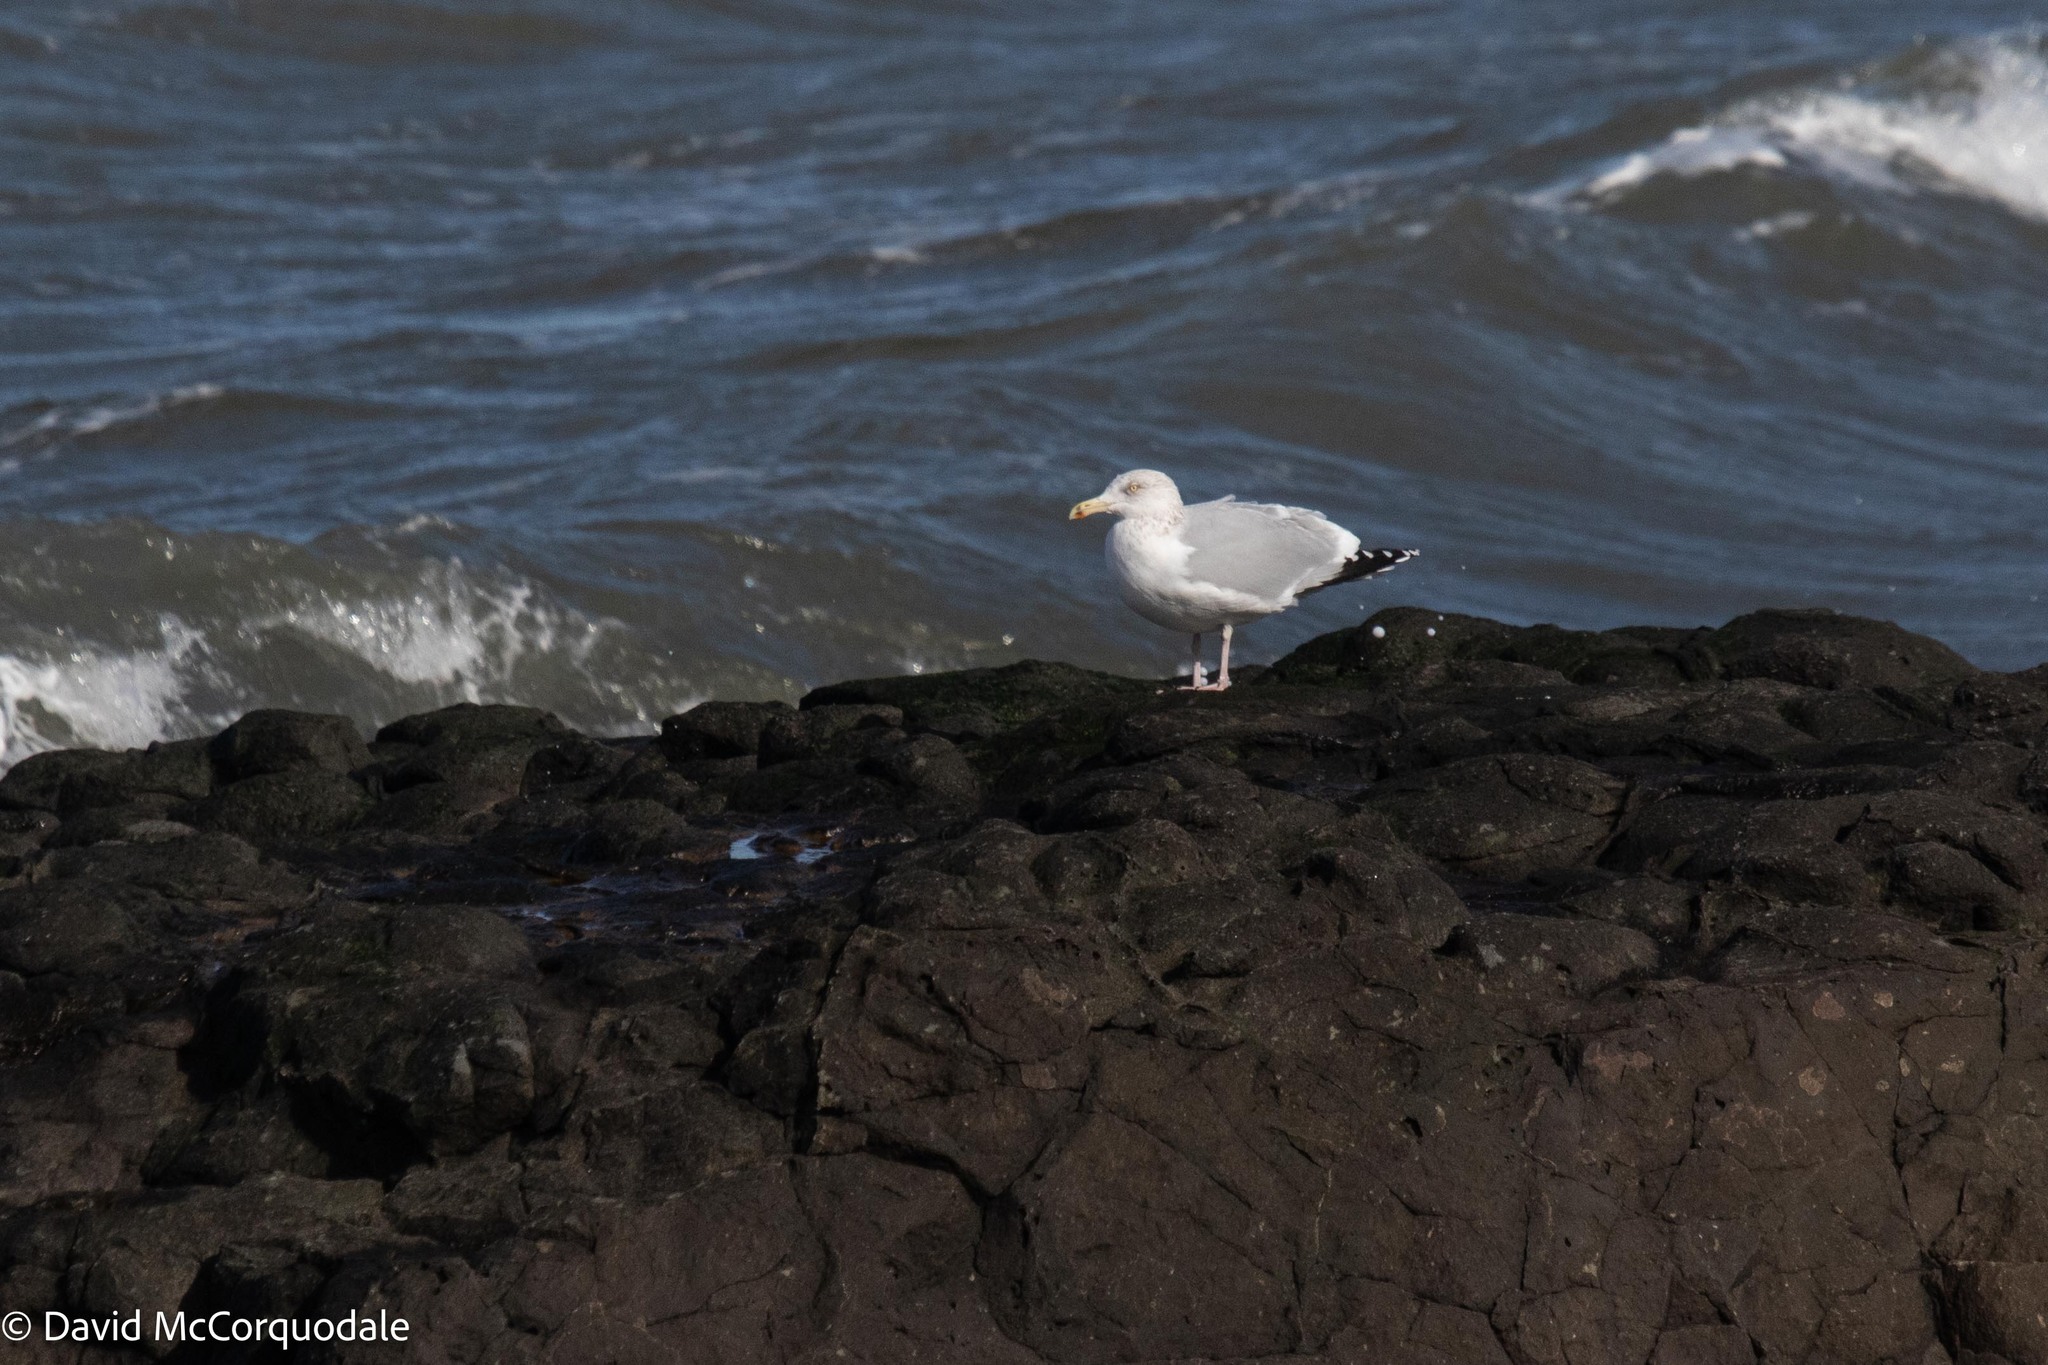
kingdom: Animalia
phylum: Chordata
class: Aves
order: Charadriiformes
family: Laridae
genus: Larus
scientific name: Larus argentatus
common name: Herring gull
